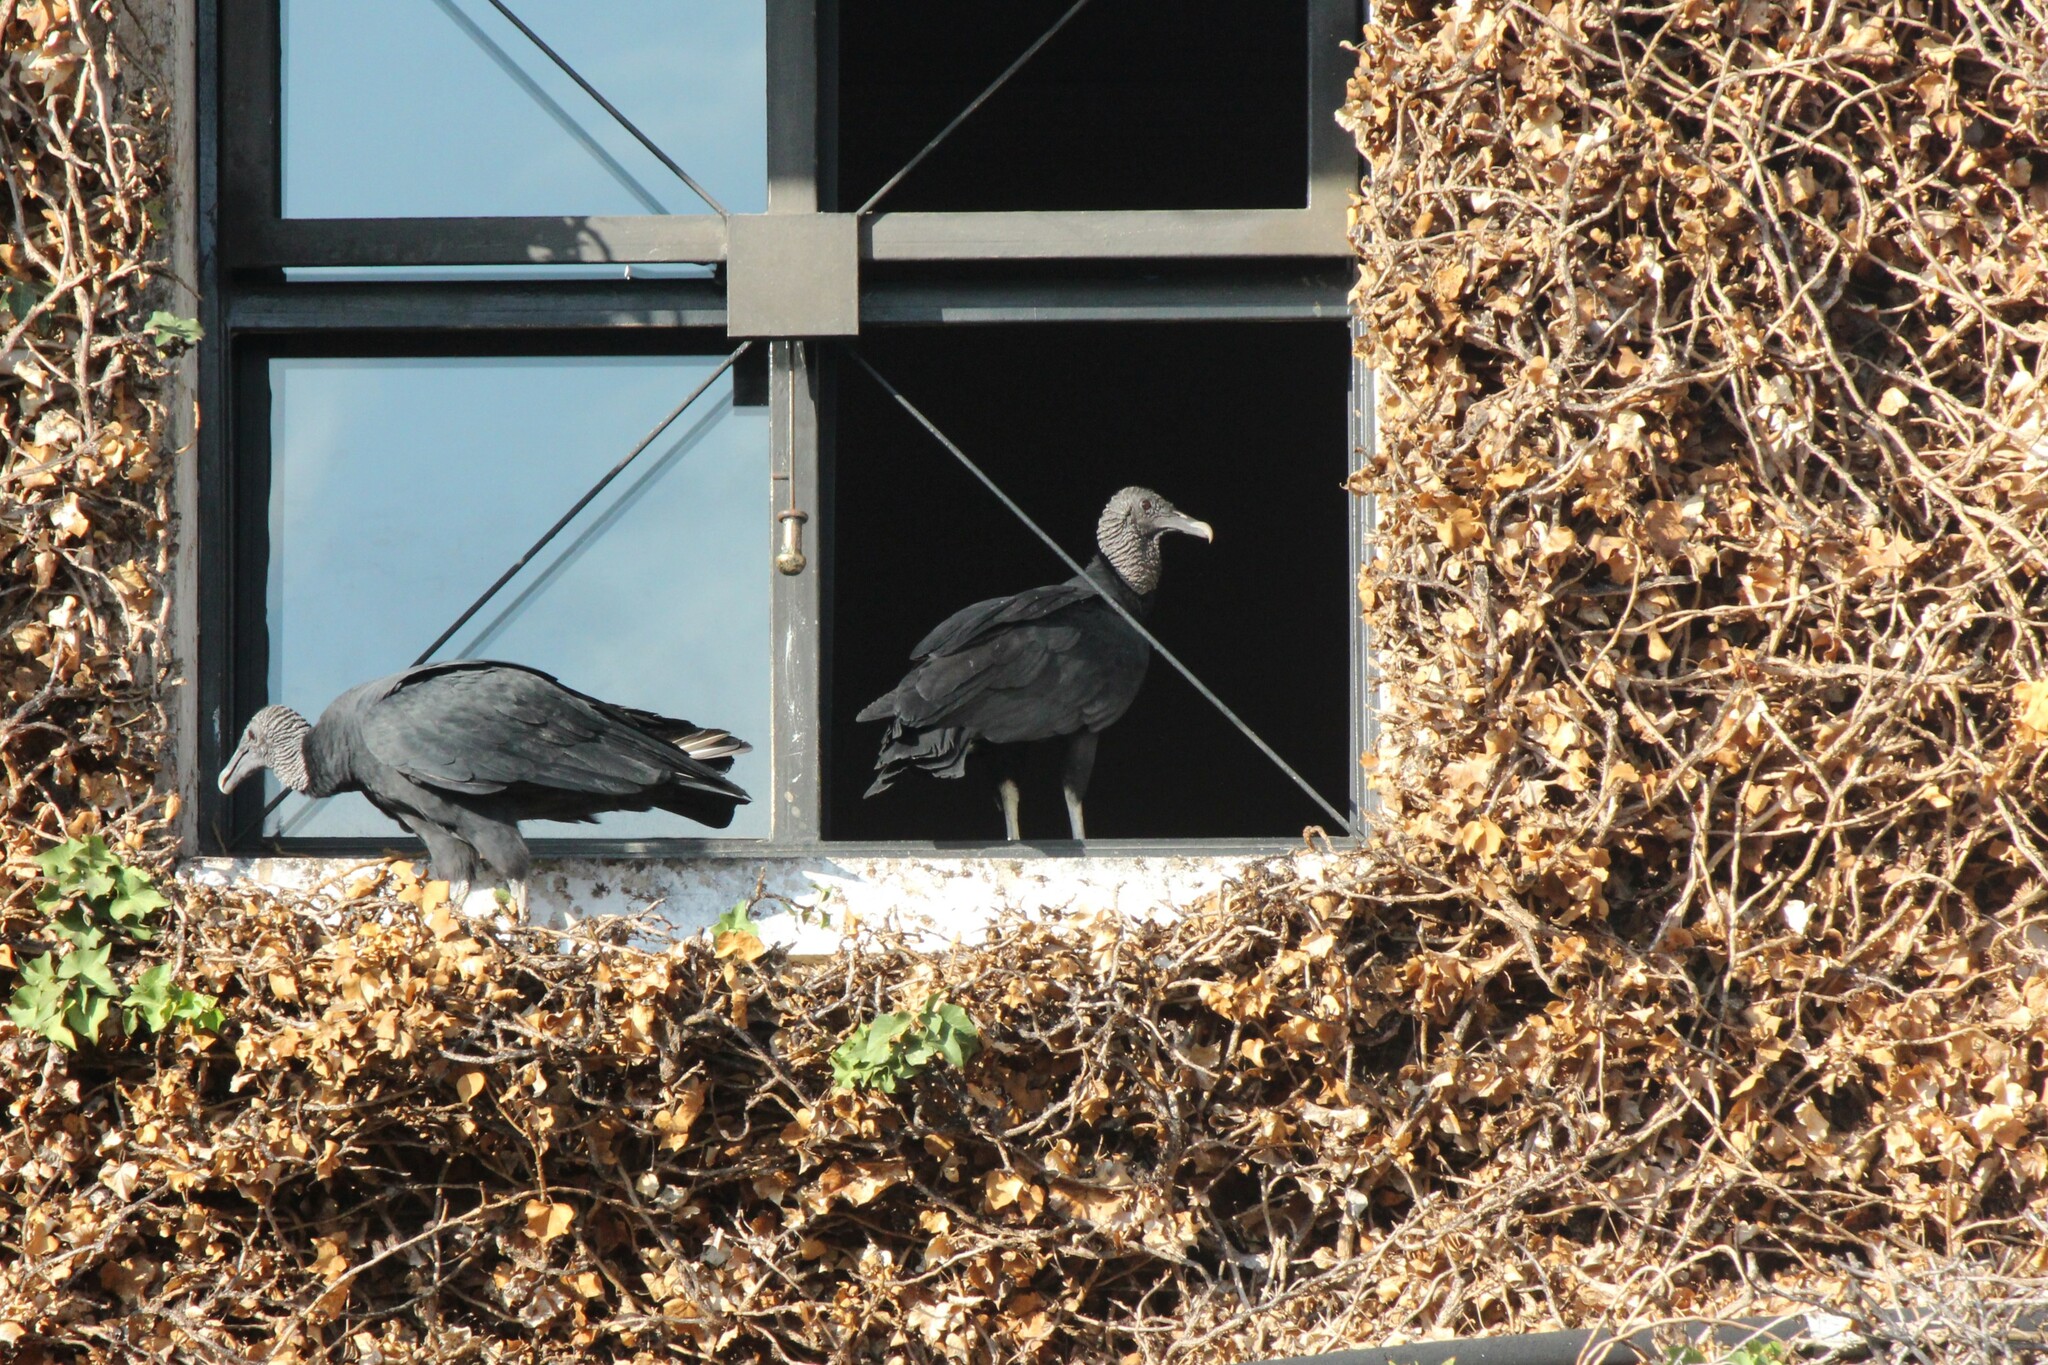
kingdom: Animalia
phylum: Chordata
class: Aves
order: Accipitriformes
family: Cathartidae
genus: Coragyps
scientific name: Coragyps atratus
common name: Black vulture
